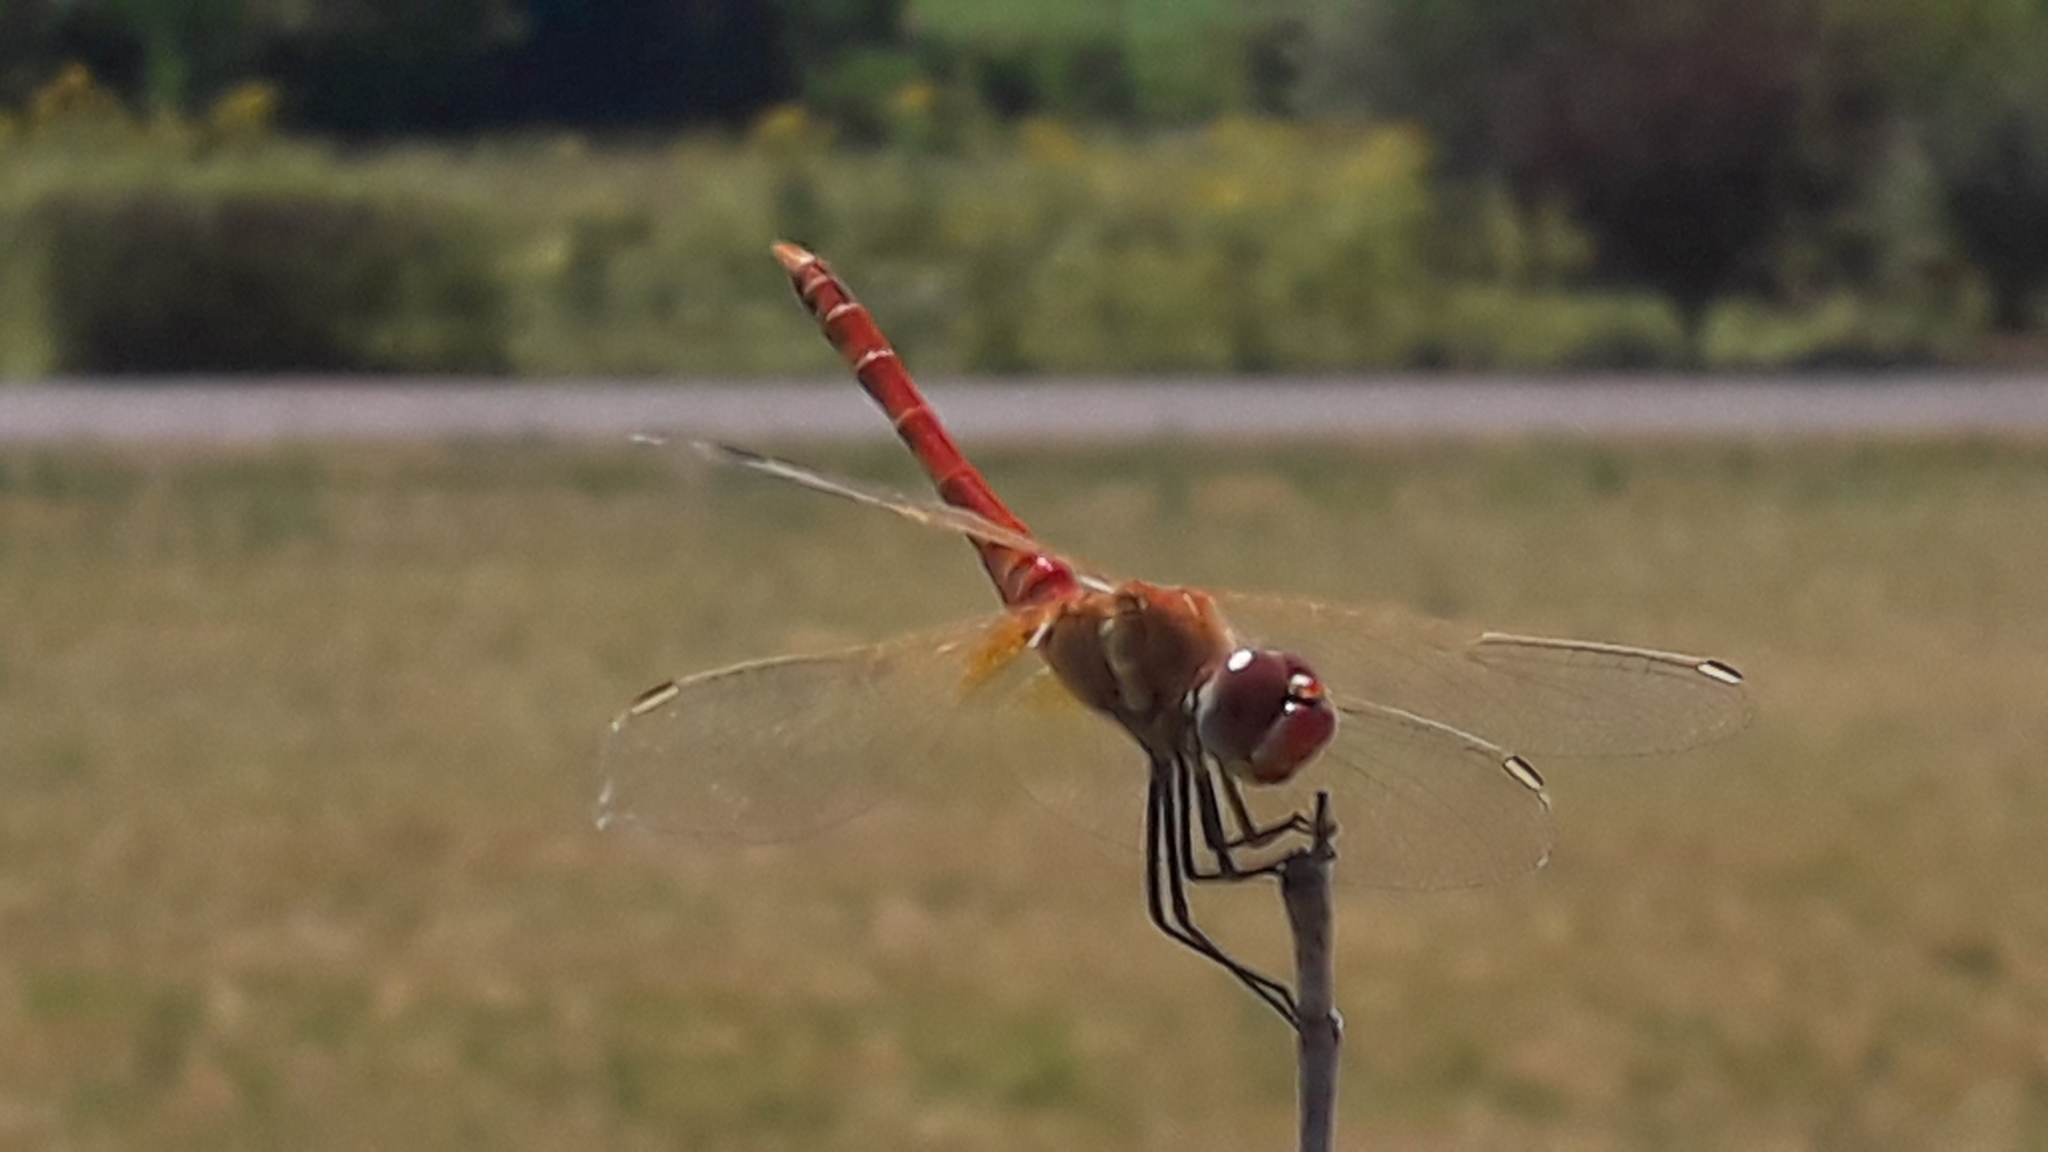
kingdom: Animalia
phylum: Arthropoda
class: Insecta
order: Odonata
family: Libellulidae
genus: Sympetrum
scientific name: Sympetrum fonscolombii
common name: Red-veined darter
